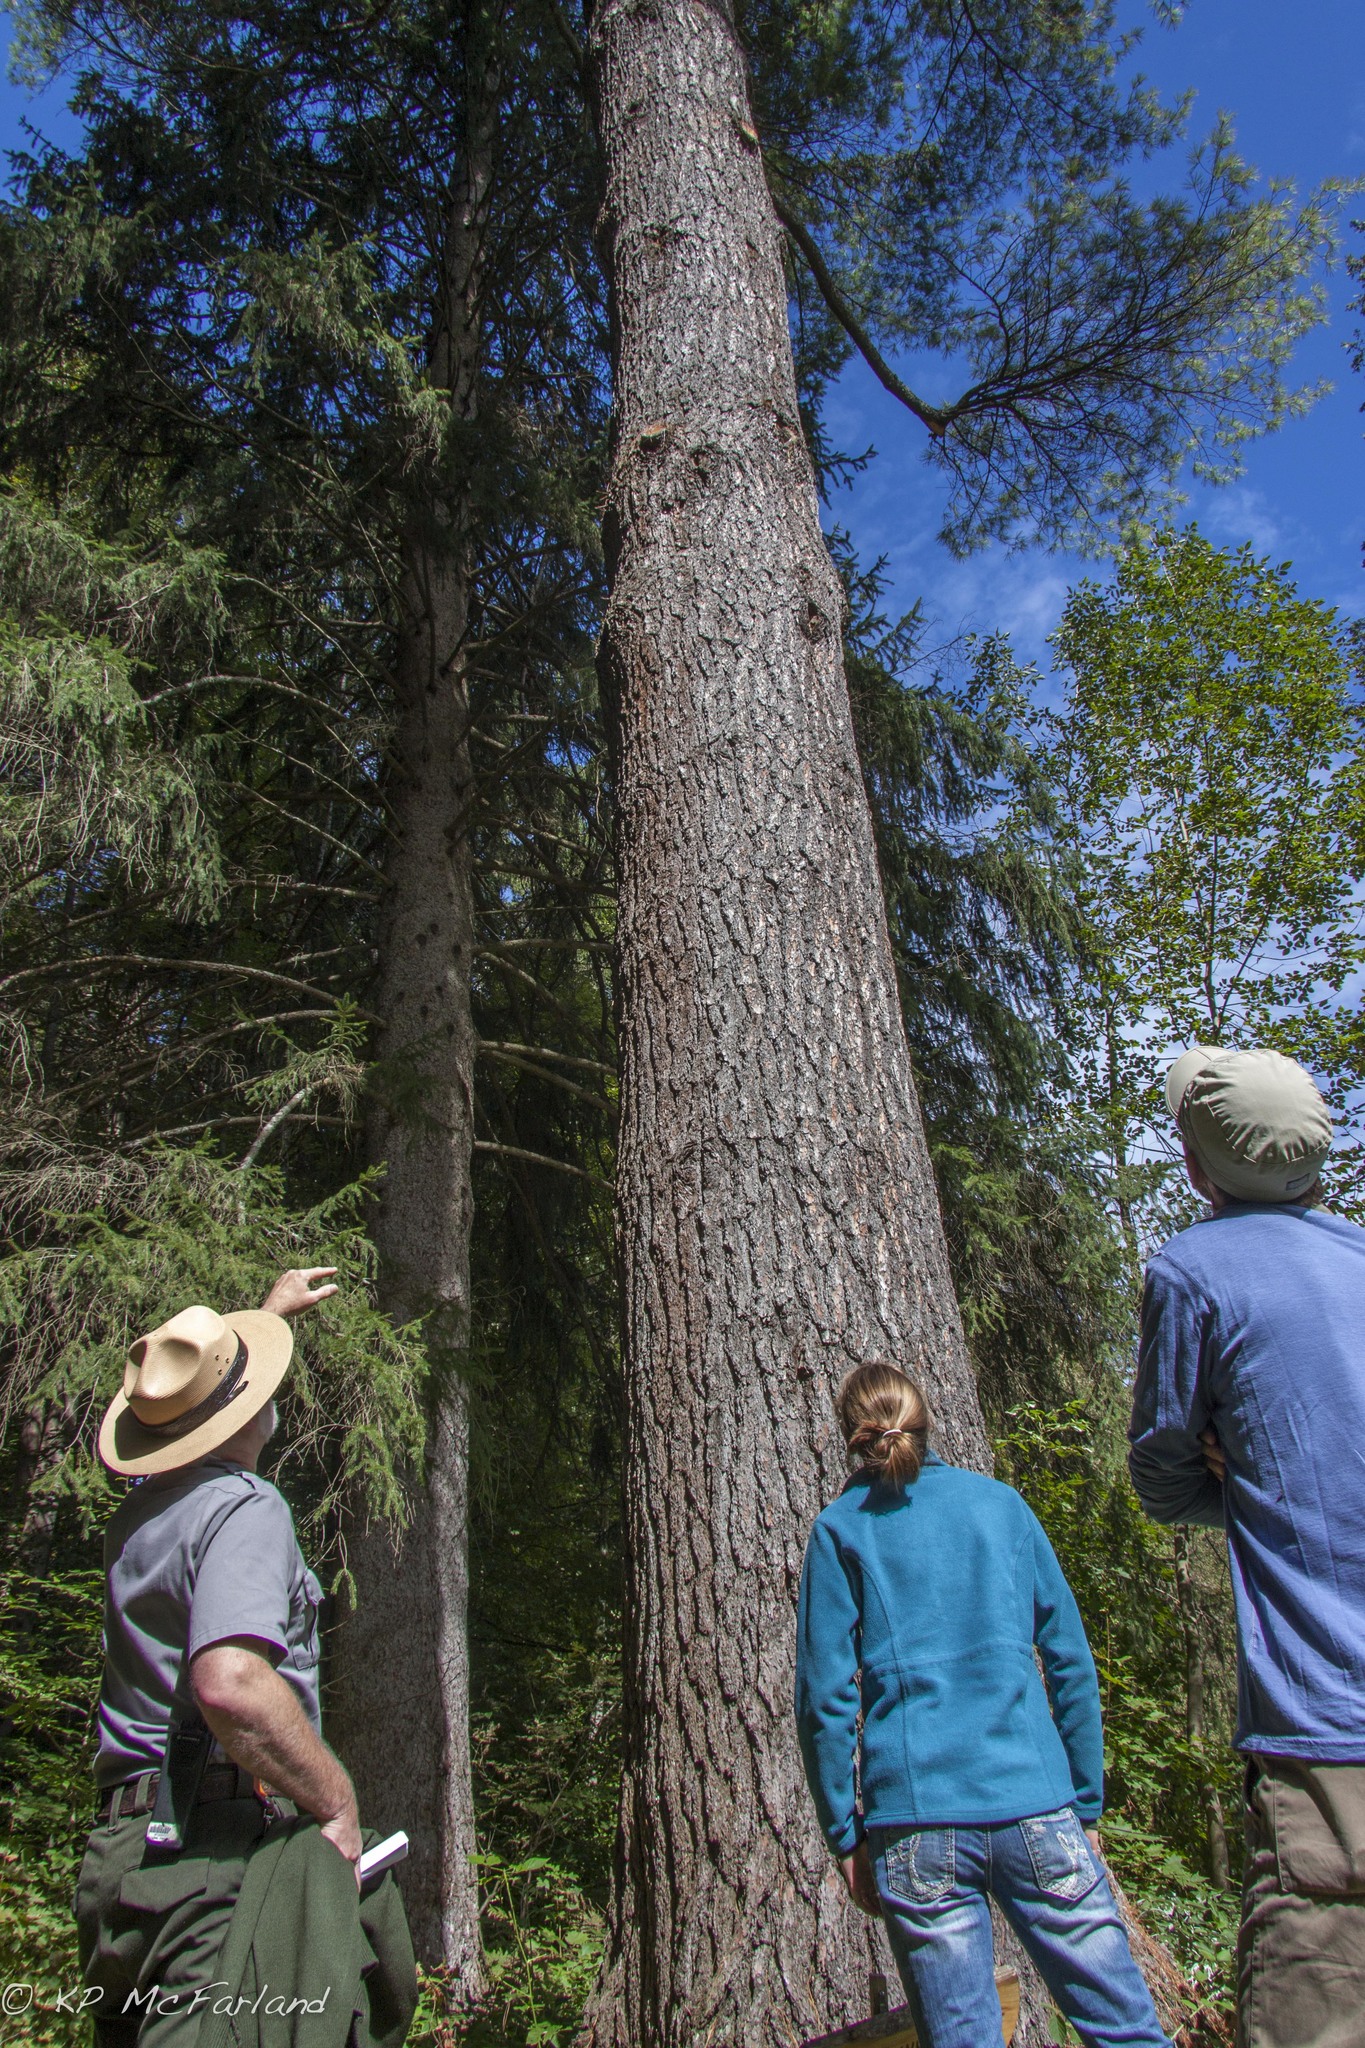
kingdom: Plantae
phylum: Tracheophyta
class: Pinopsida
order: Pinales
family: Pinaceae
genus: Pinus
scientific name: Pinus strobus
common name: Weymouth pine
